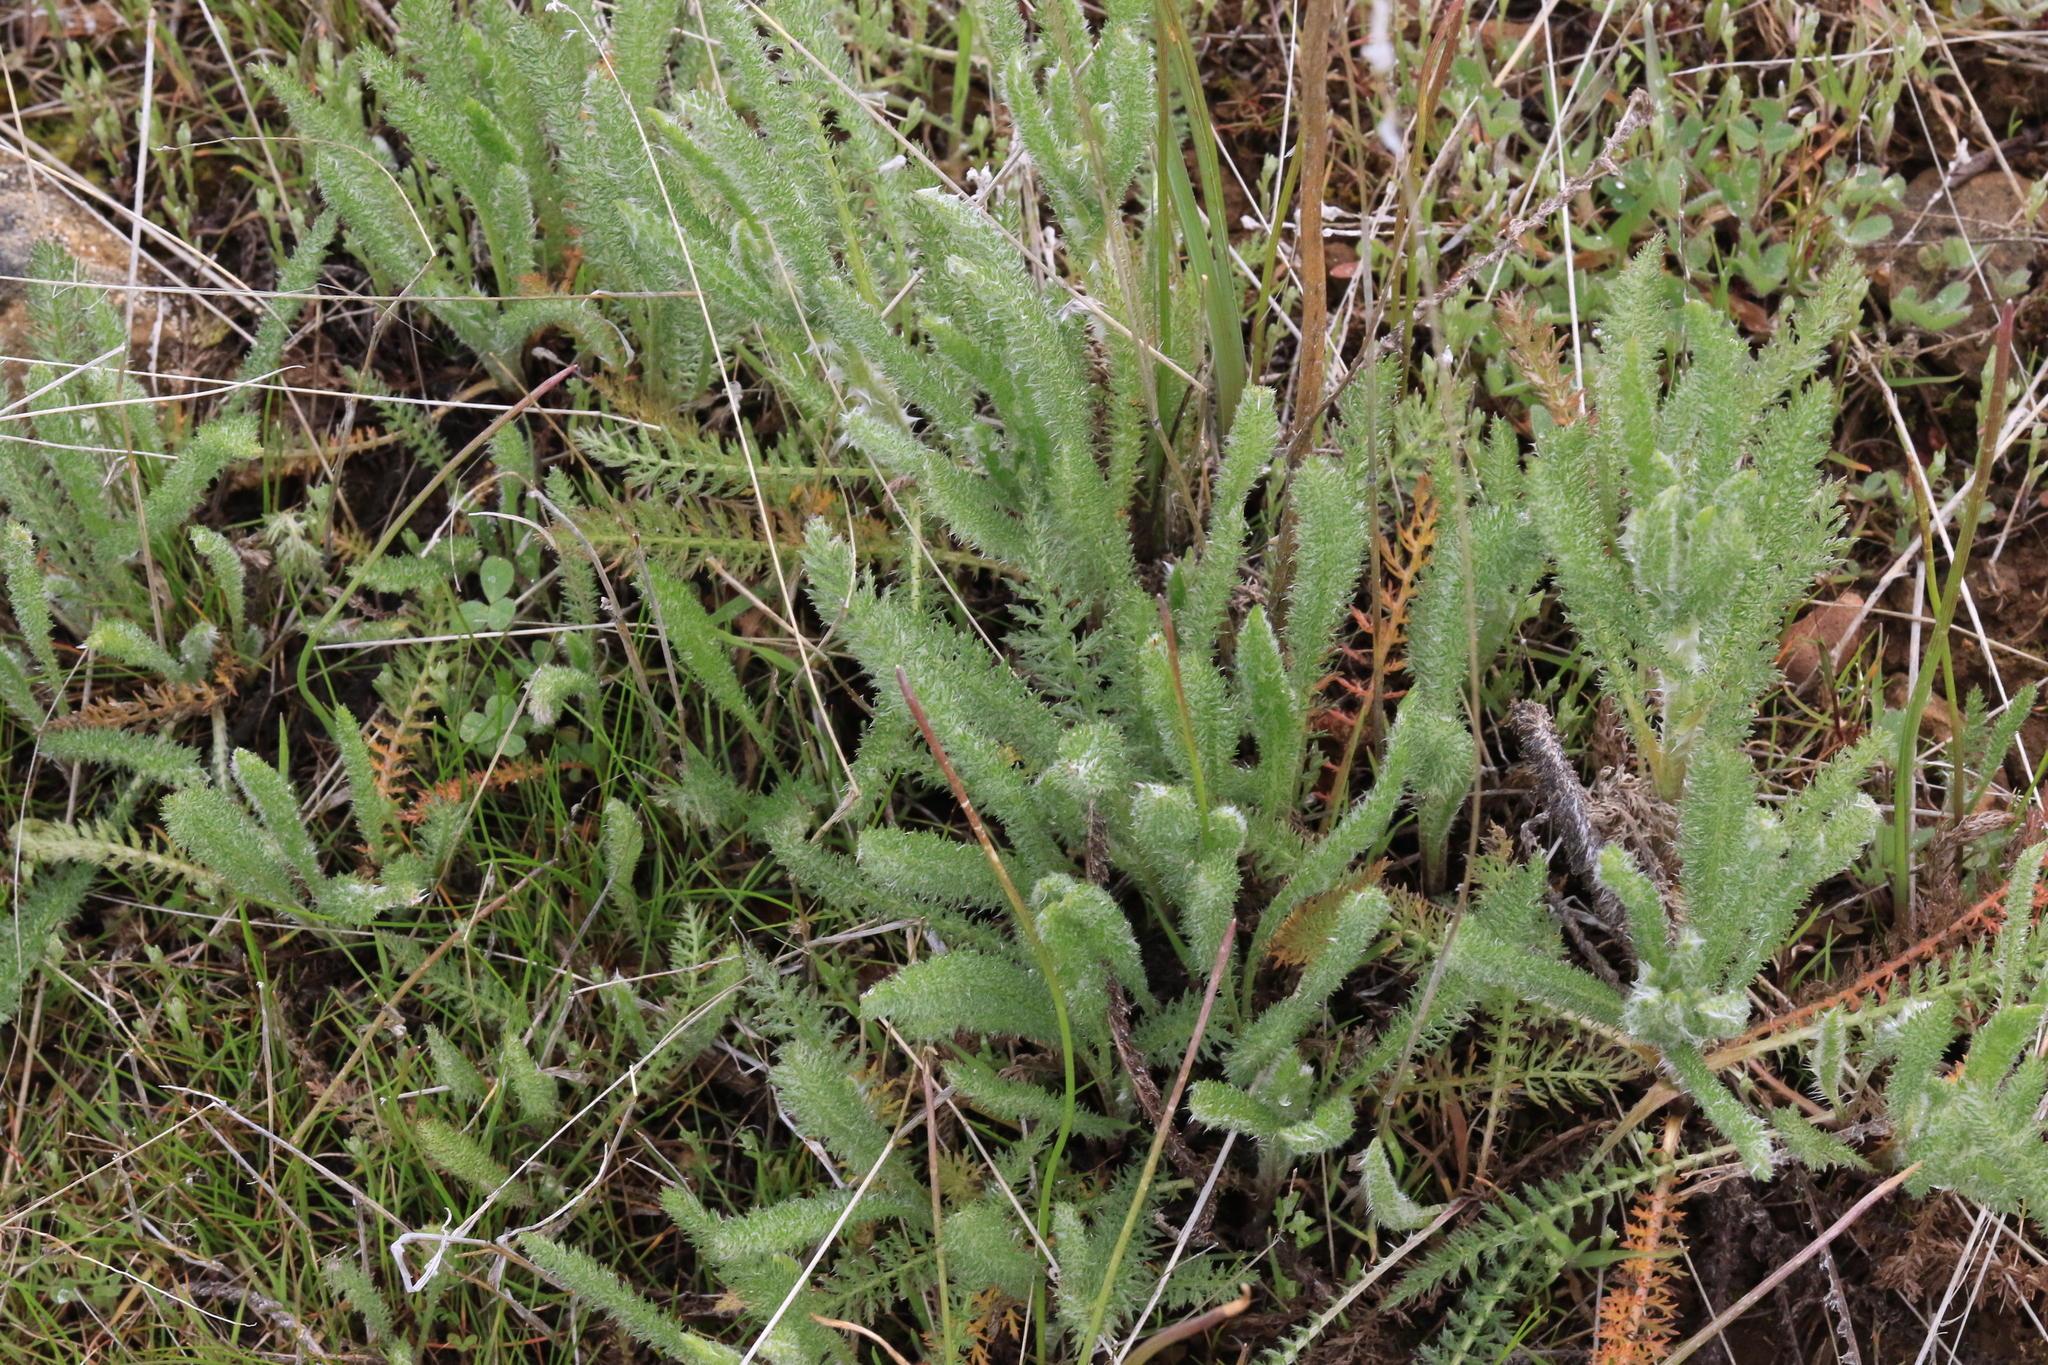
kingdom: Plantae
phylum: Tracheophyta
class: Magnoliopsida
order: Asterales
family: Asteraceae
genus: Achillea
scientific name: Achillea millefolium
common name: Yarrow
